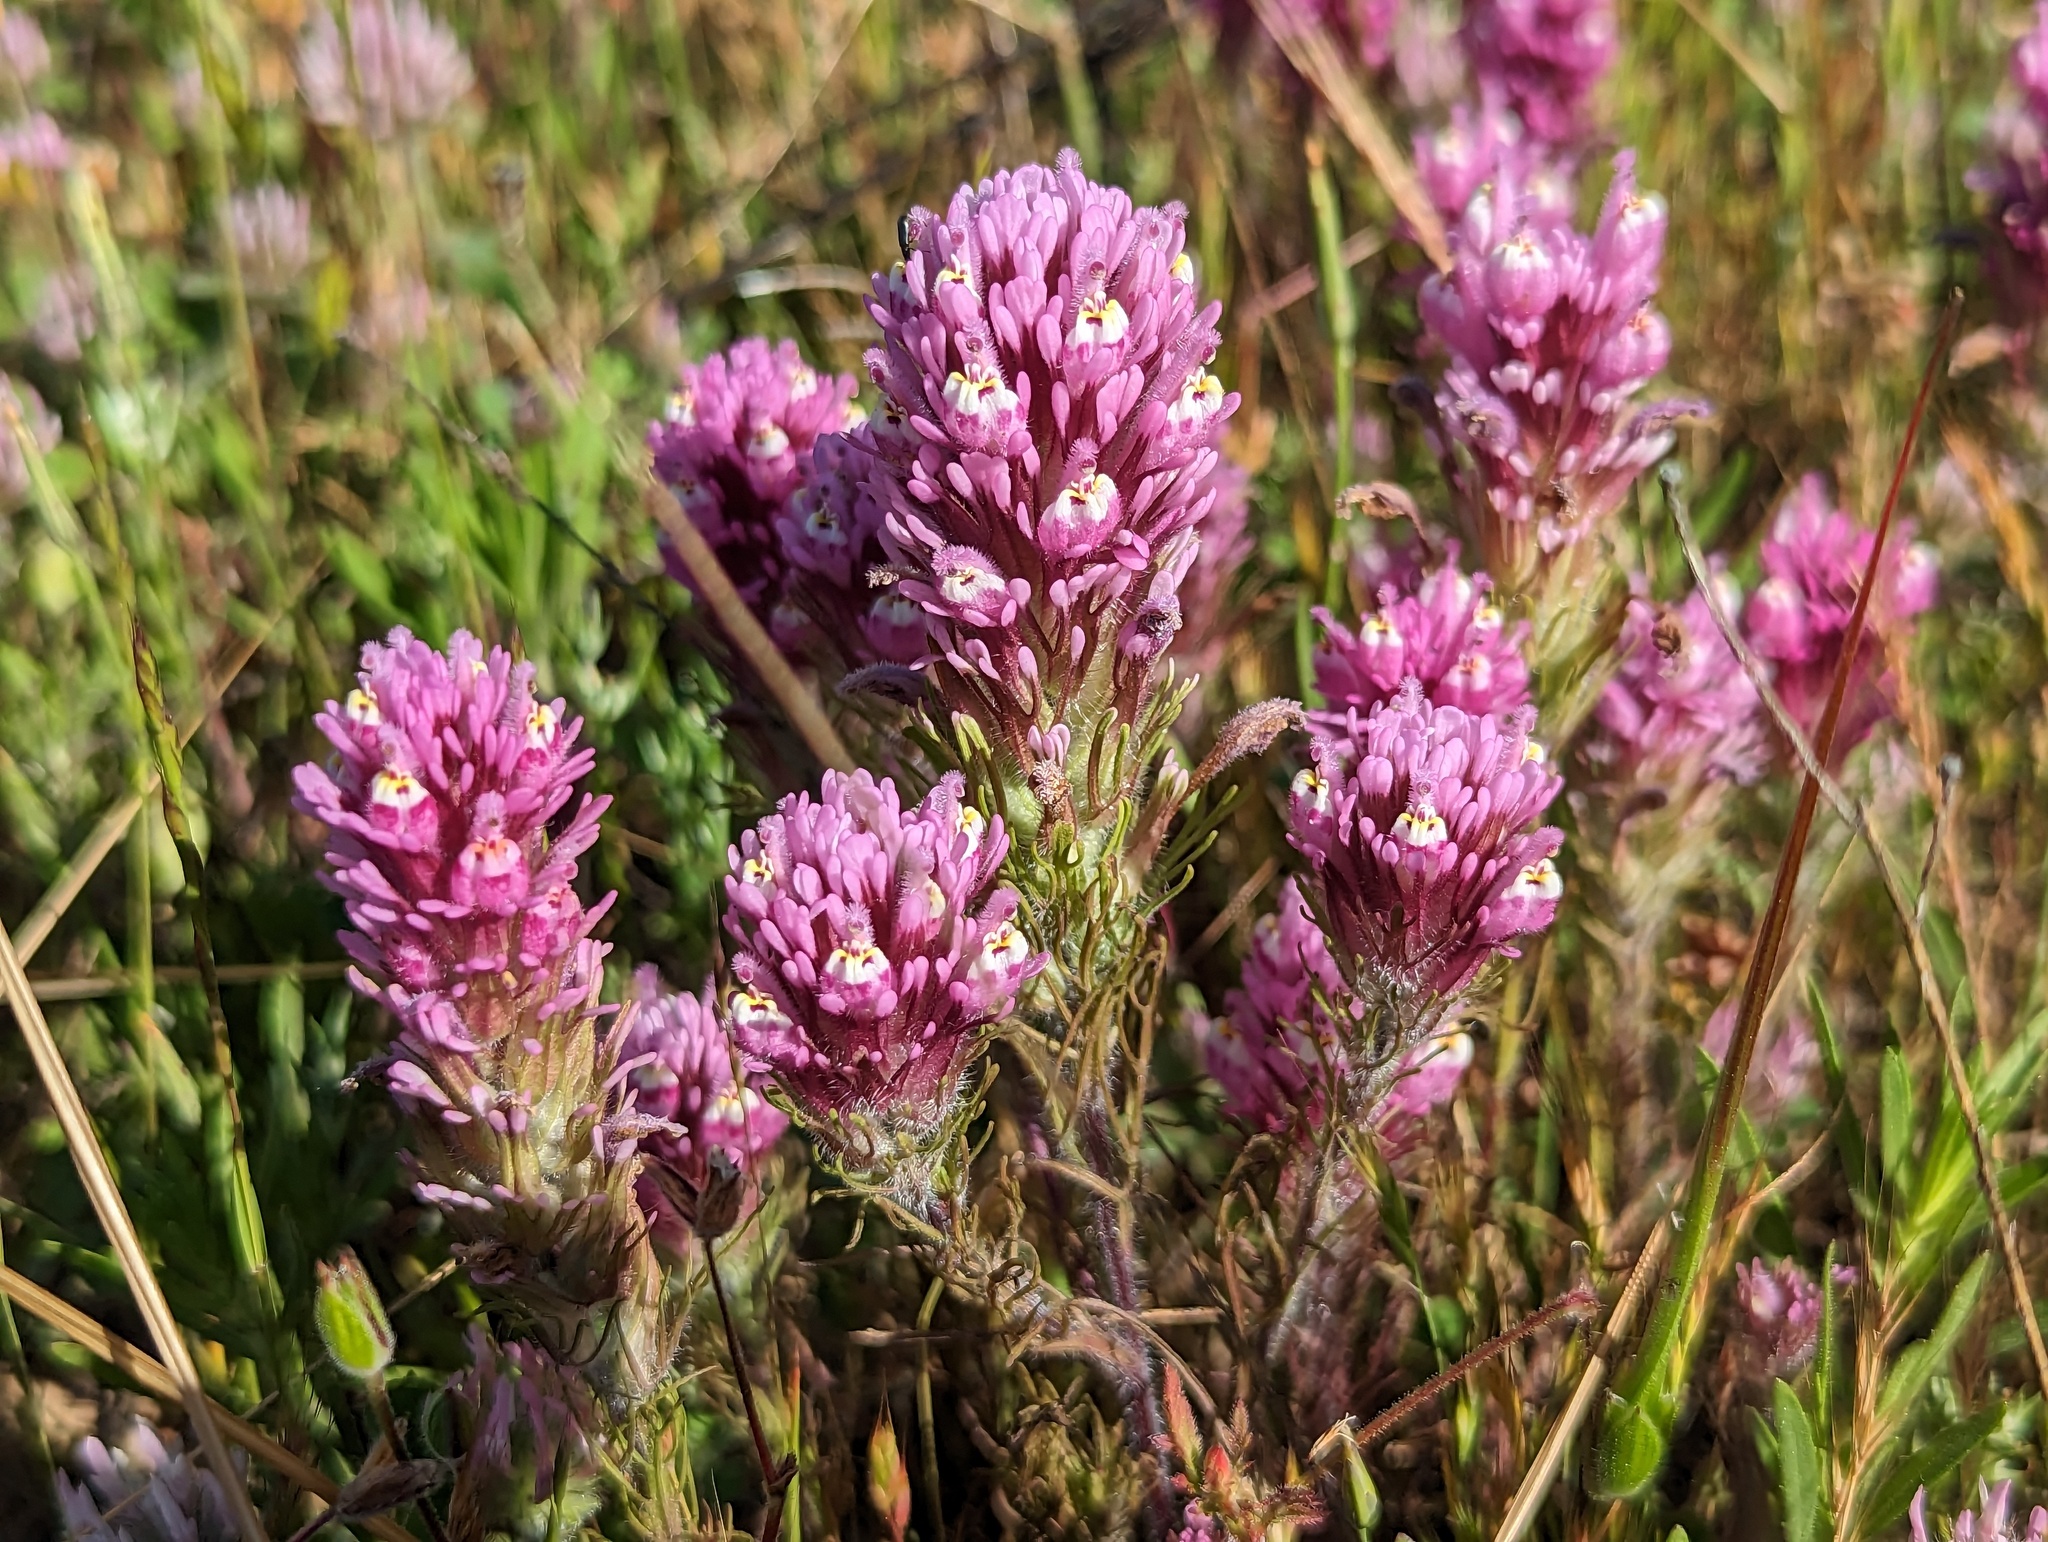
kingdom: Plantae
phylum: Tracheophyta
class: Magnoliopsida
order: Lamiales
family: Orobanchaceae
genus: Castilleja
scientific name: Castilleja exserta
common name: Purple owl-clover
